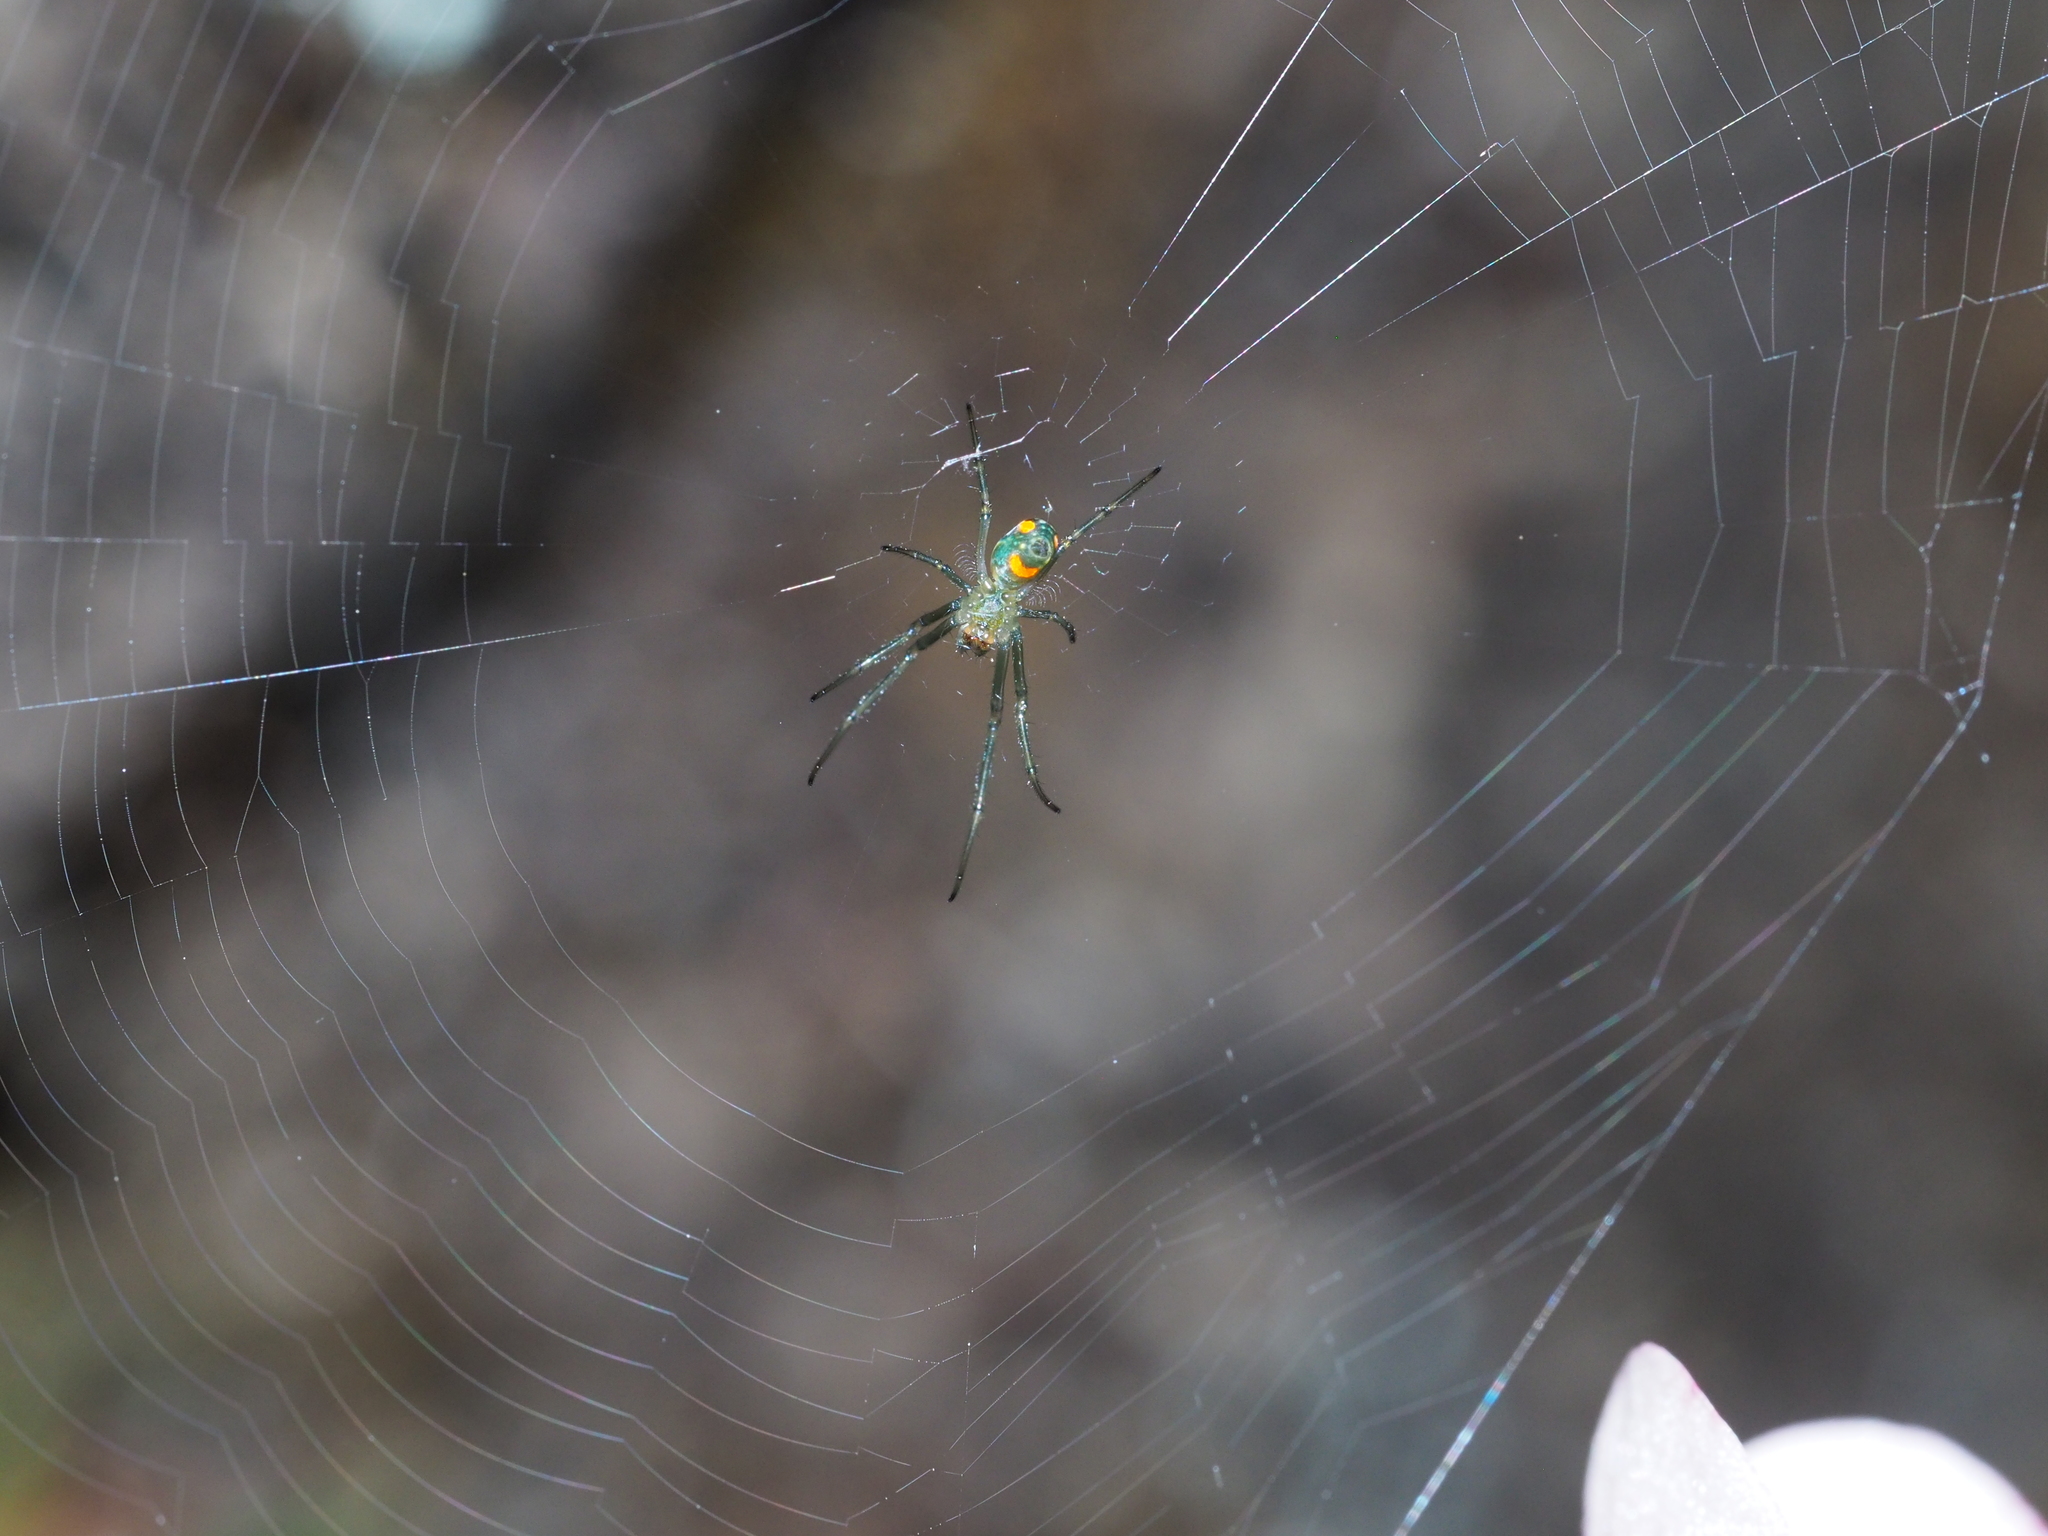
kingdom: Animalia
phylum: Arthropoda
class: Arachnida
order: Araneae
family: Tetragnathidae
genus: Leucauge
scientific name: Leucauge argyrobapta
